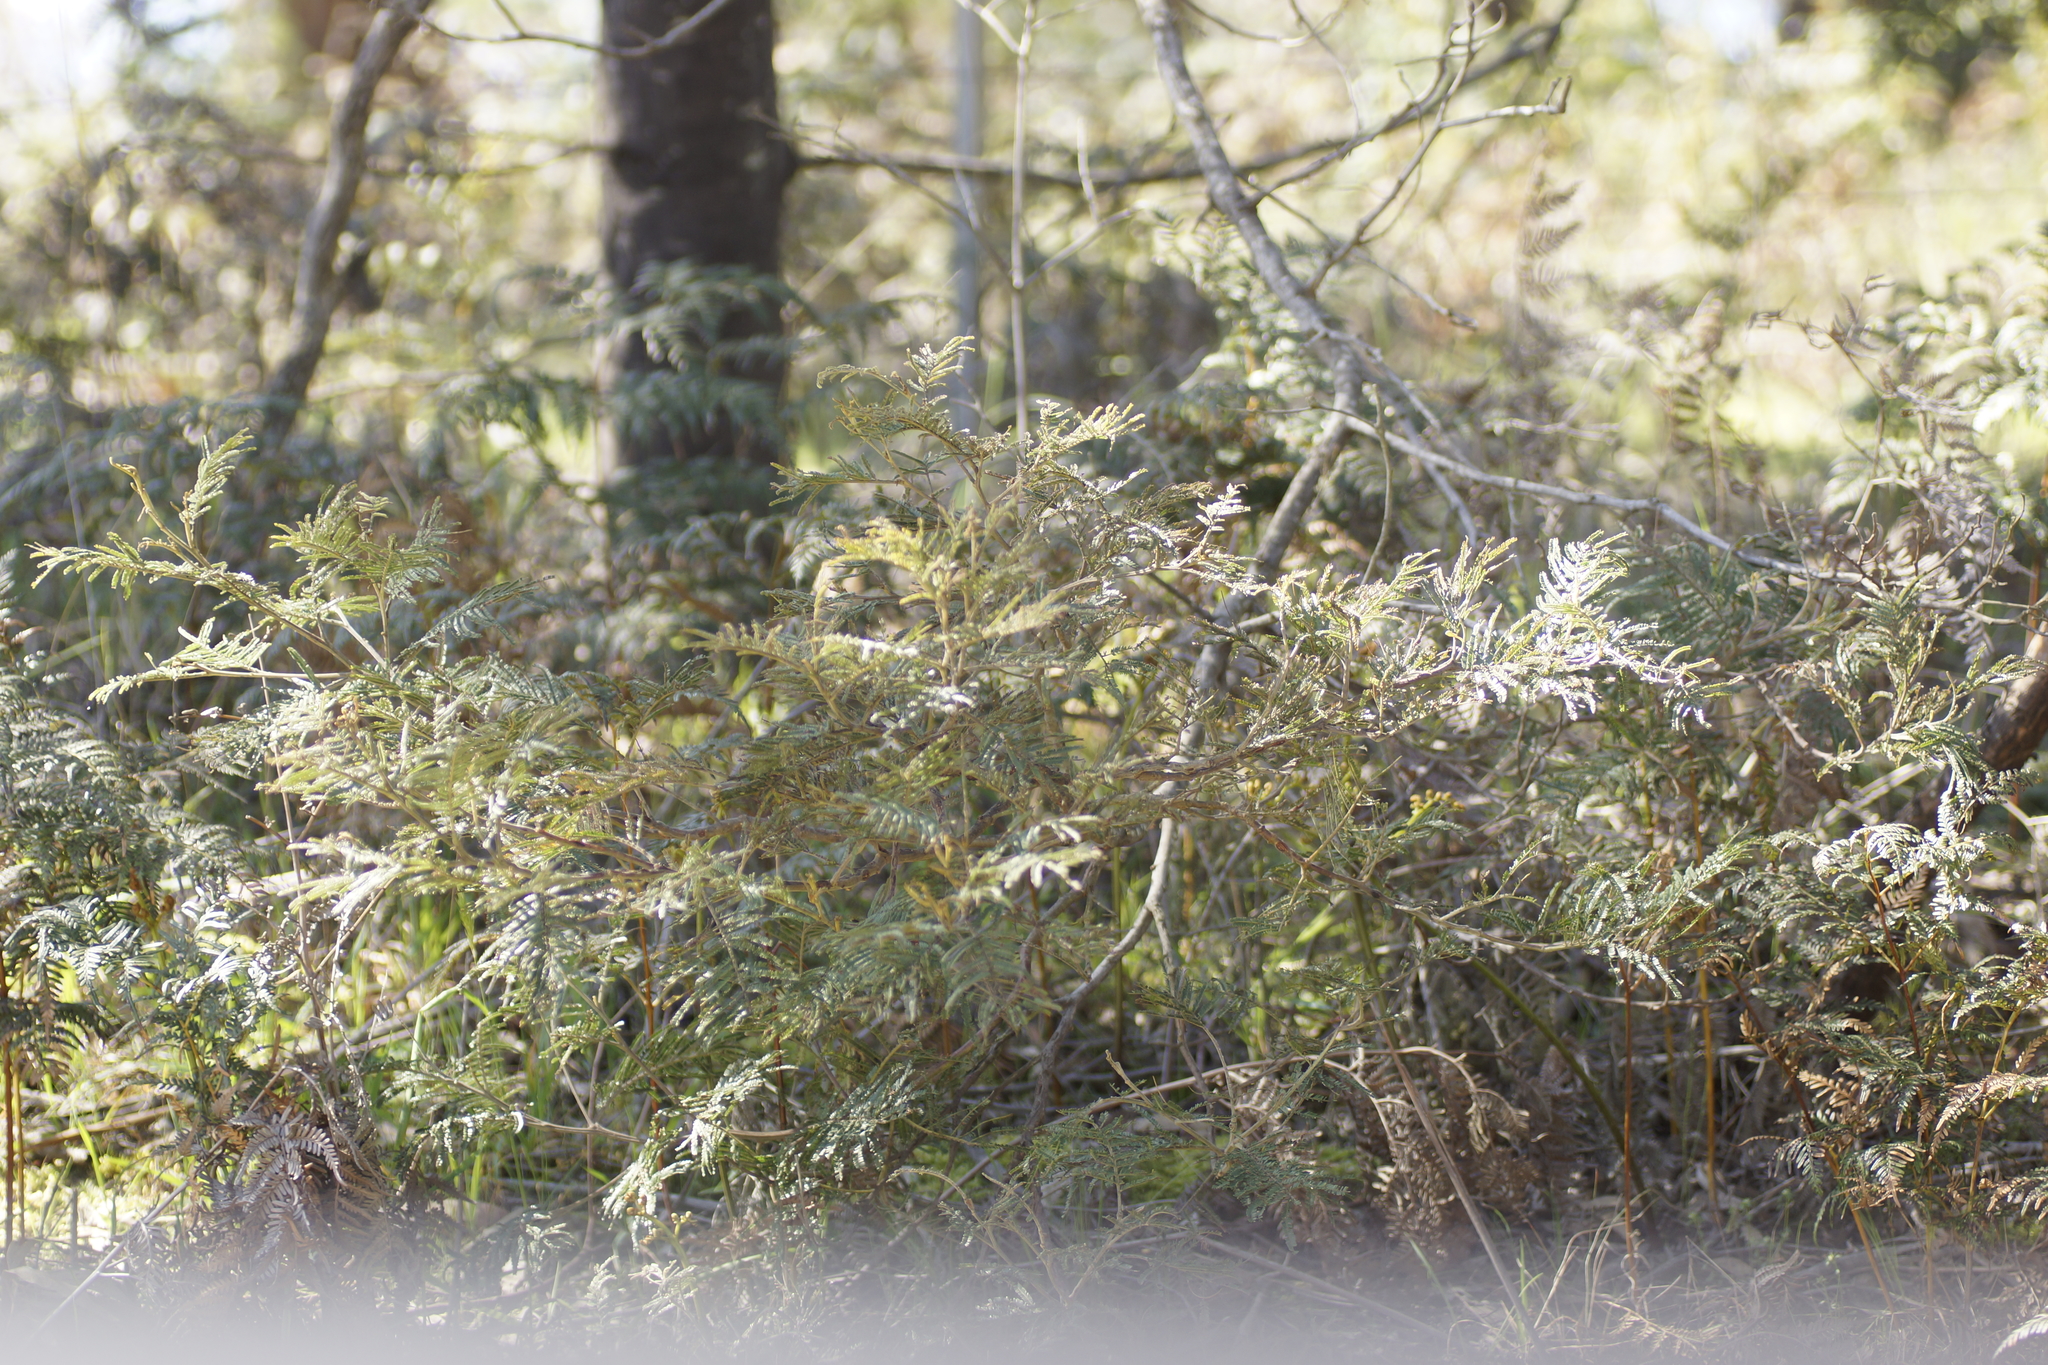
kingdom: Plantae
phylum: Tracheophyta
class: Polypodiopsida
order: Polypodiales
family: Dennstaedtiaceae
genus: Pteridium
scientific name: Pteridium esculentum
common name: Bracken fern
